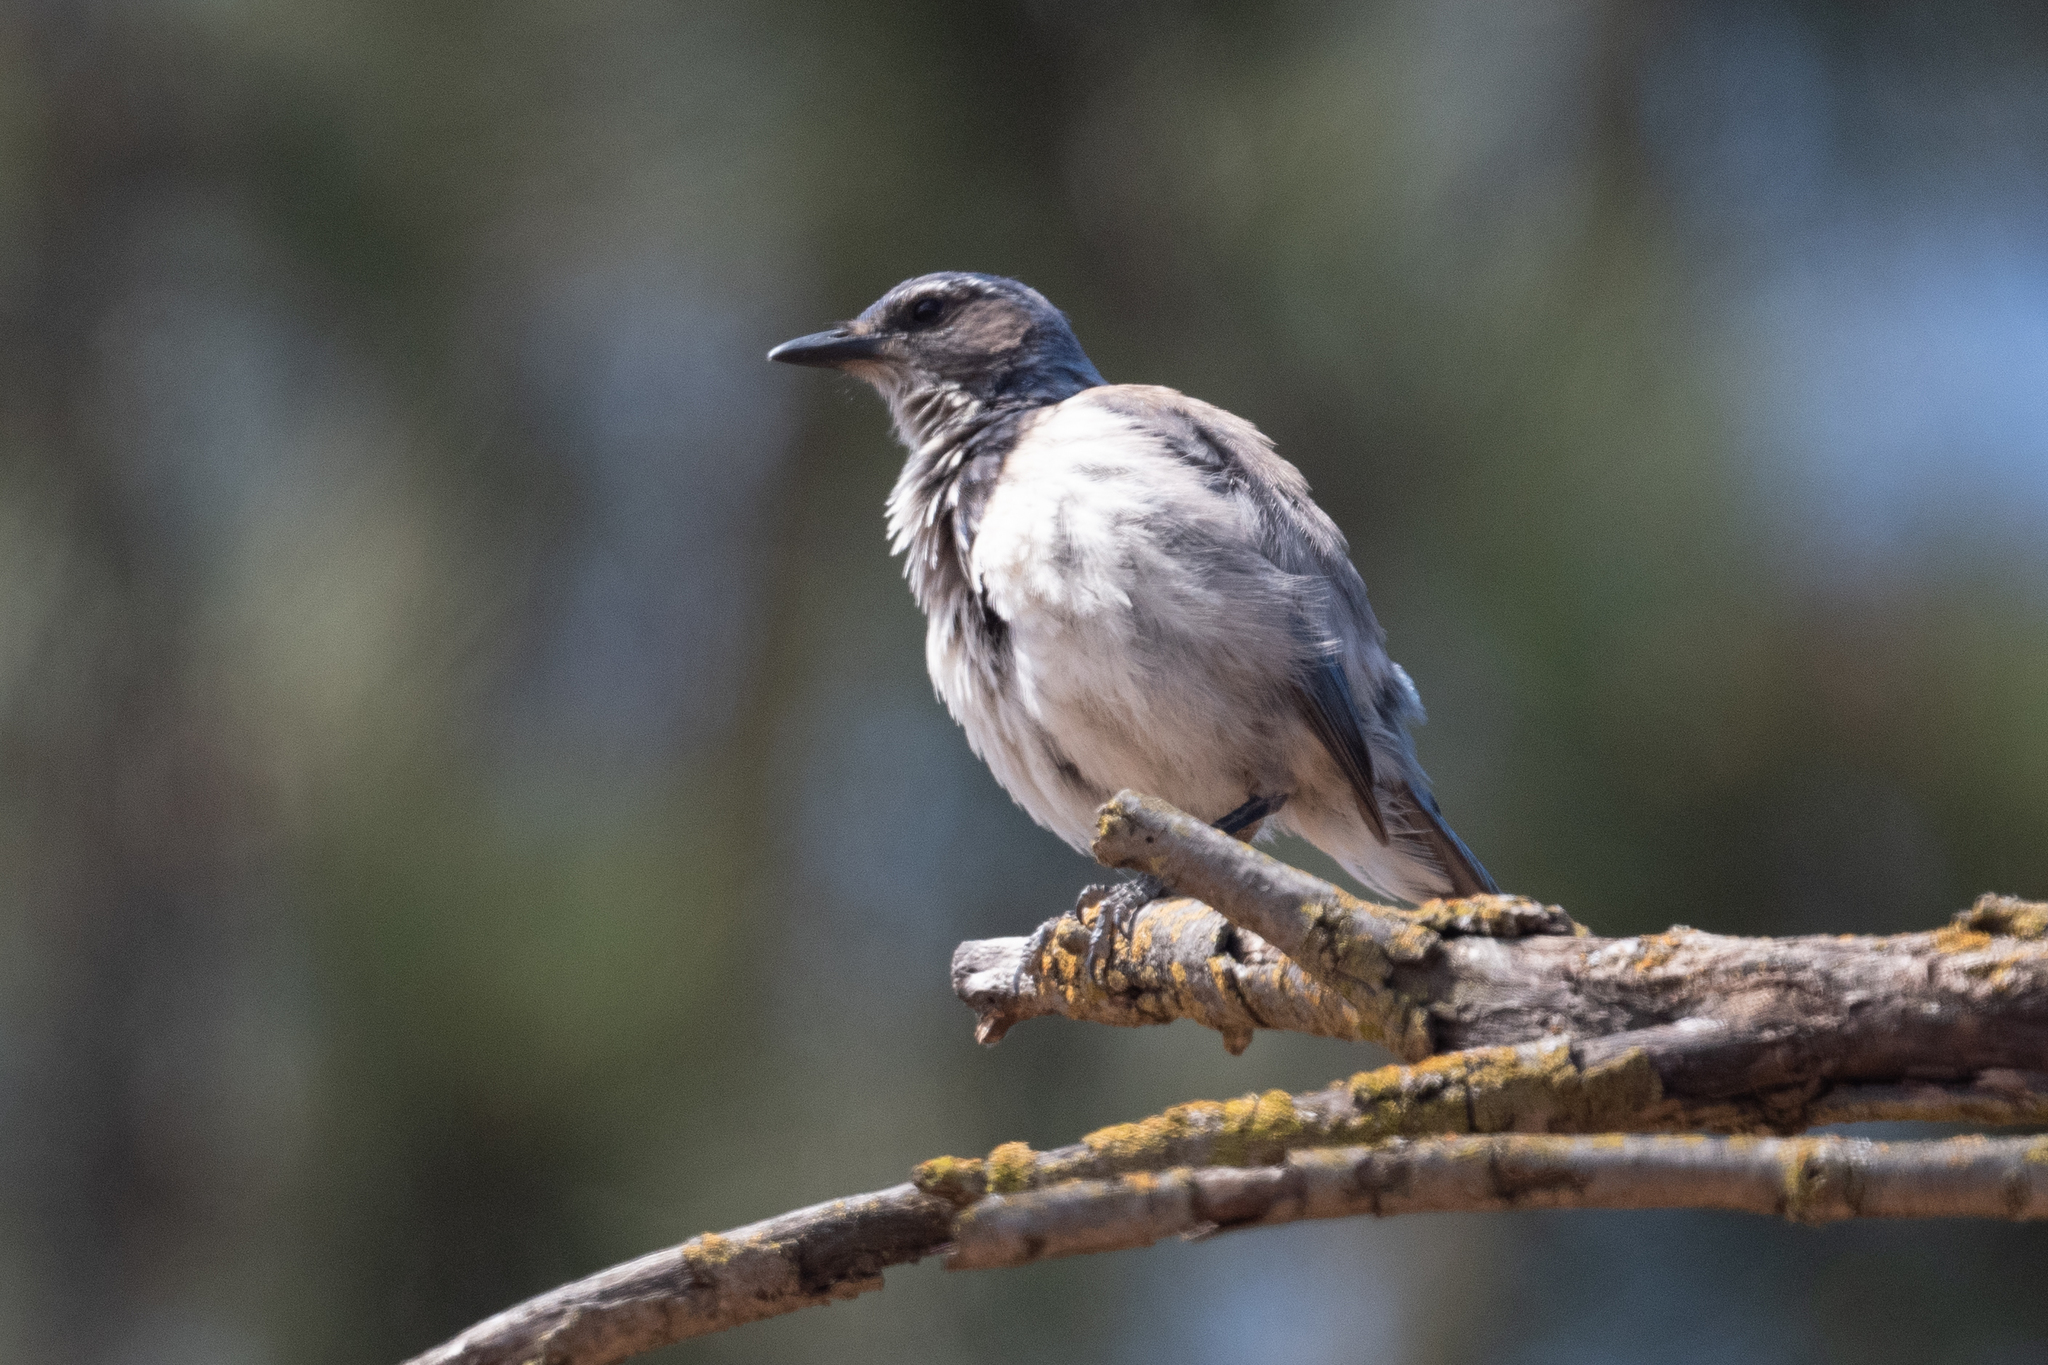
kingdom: Animalia
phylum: Chordata
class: Aves
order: Passeriformes
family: Corvidae
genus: Aphelocoma
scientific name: Aphelocoma californica
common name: California scrub-jay
